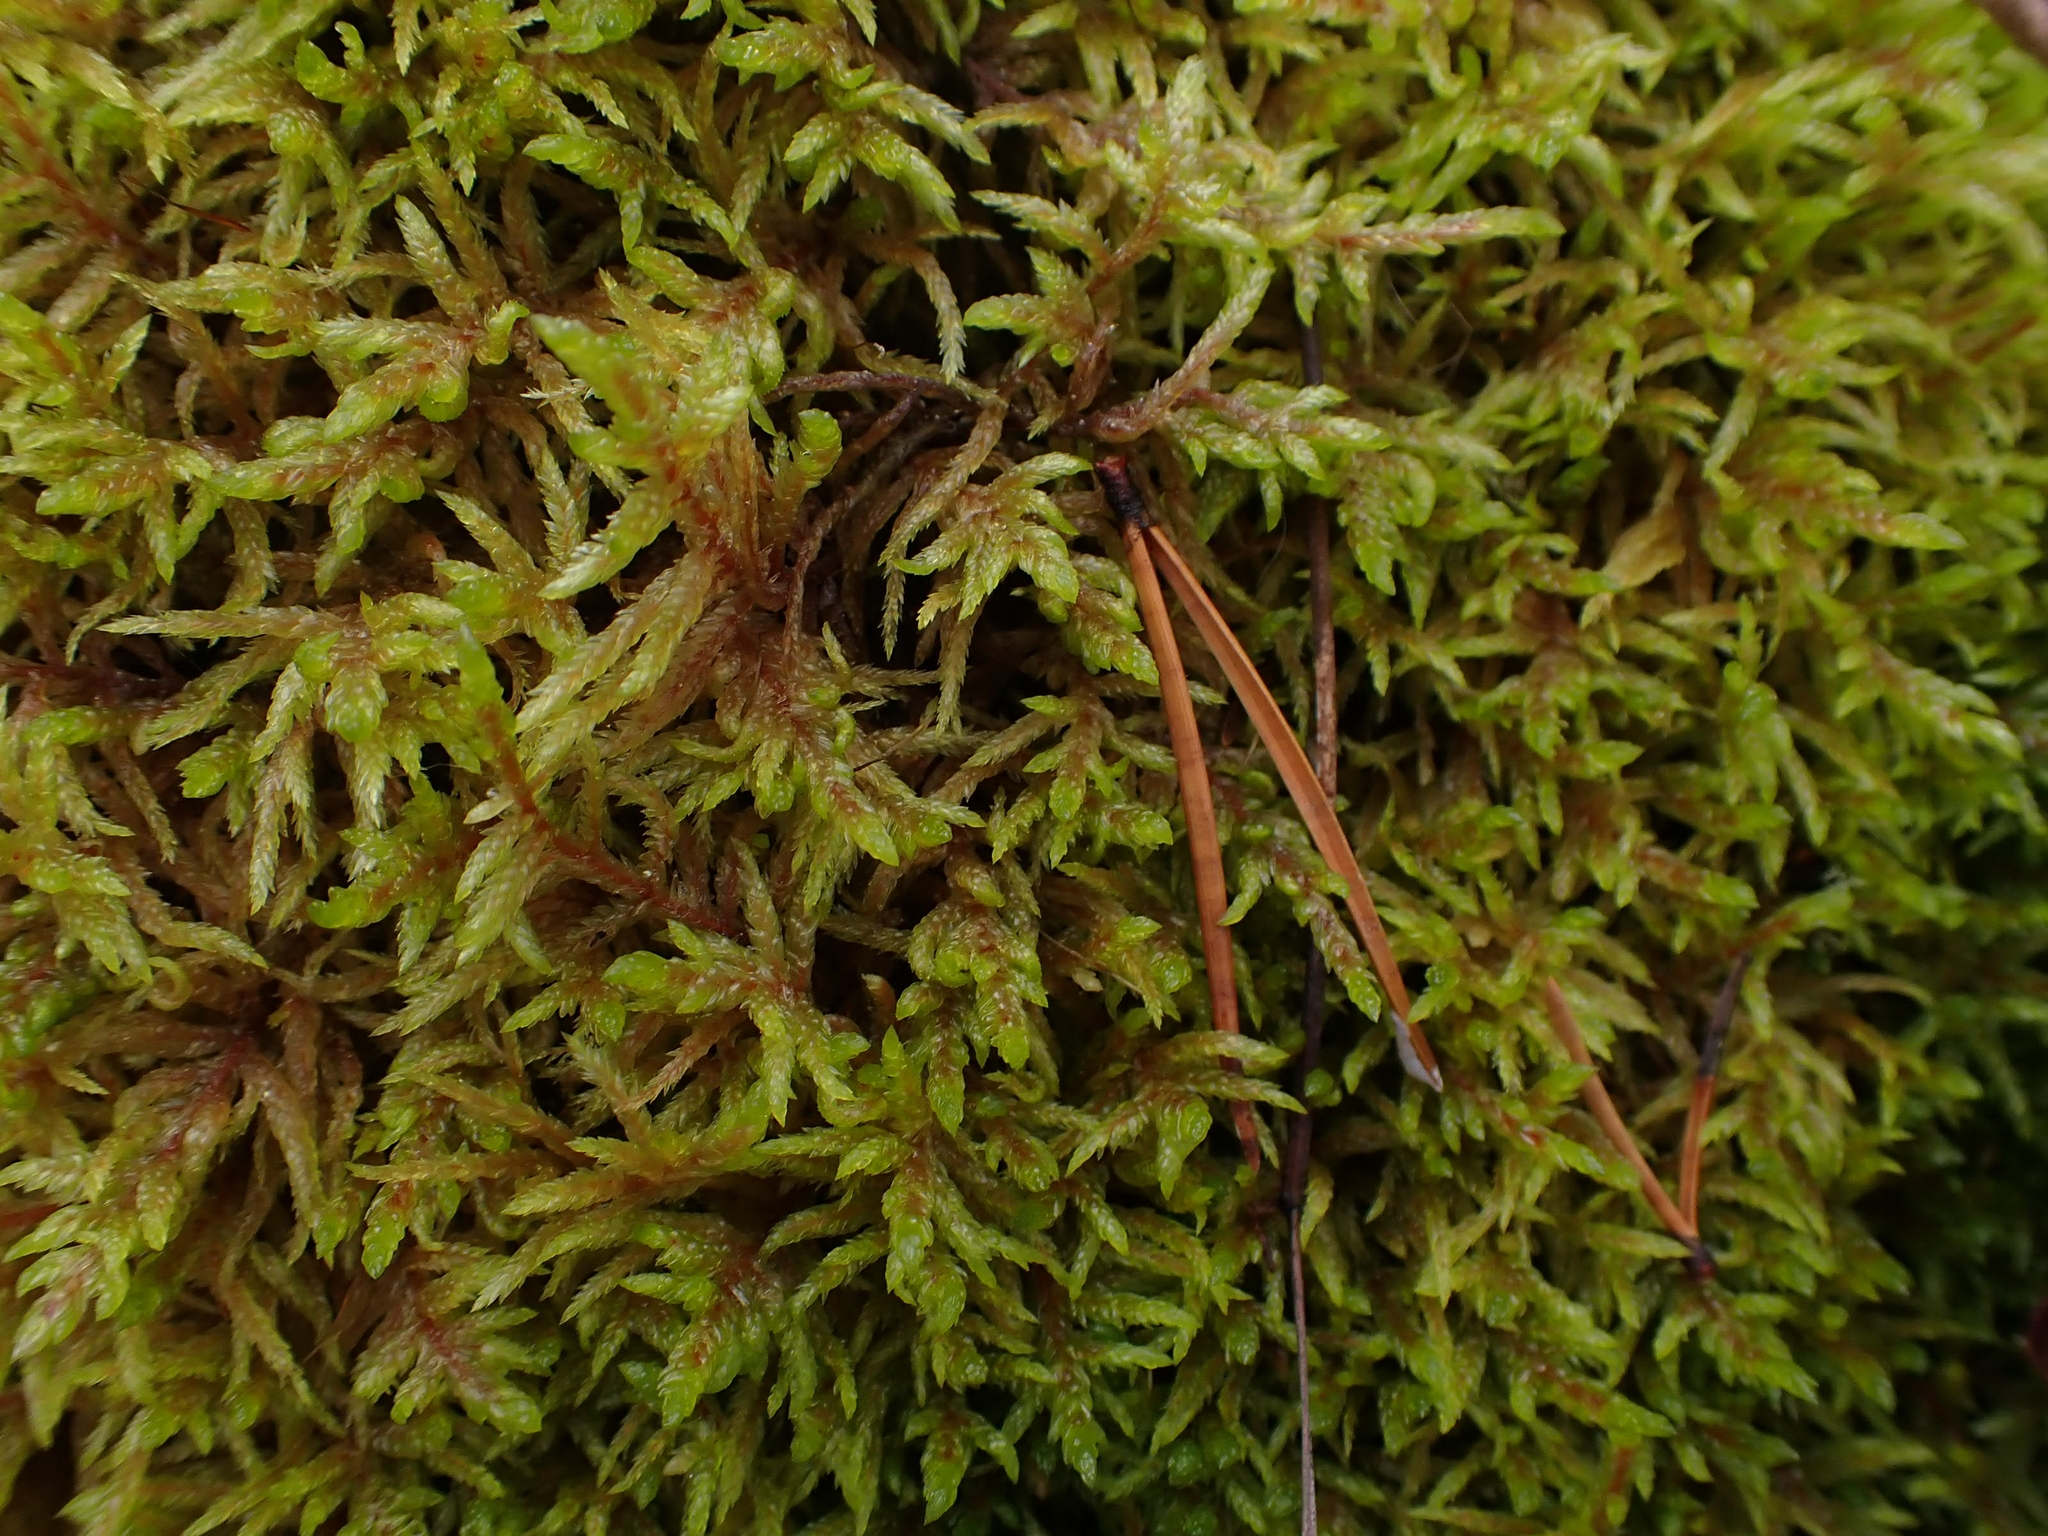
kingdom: Plantae
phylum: Bryophyta
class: Bryopsida
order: Hypnales
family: Hylocomiaceae
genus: Pleurozium
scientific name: Pleurozium schreberi
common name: Red-stemmed feather moss
